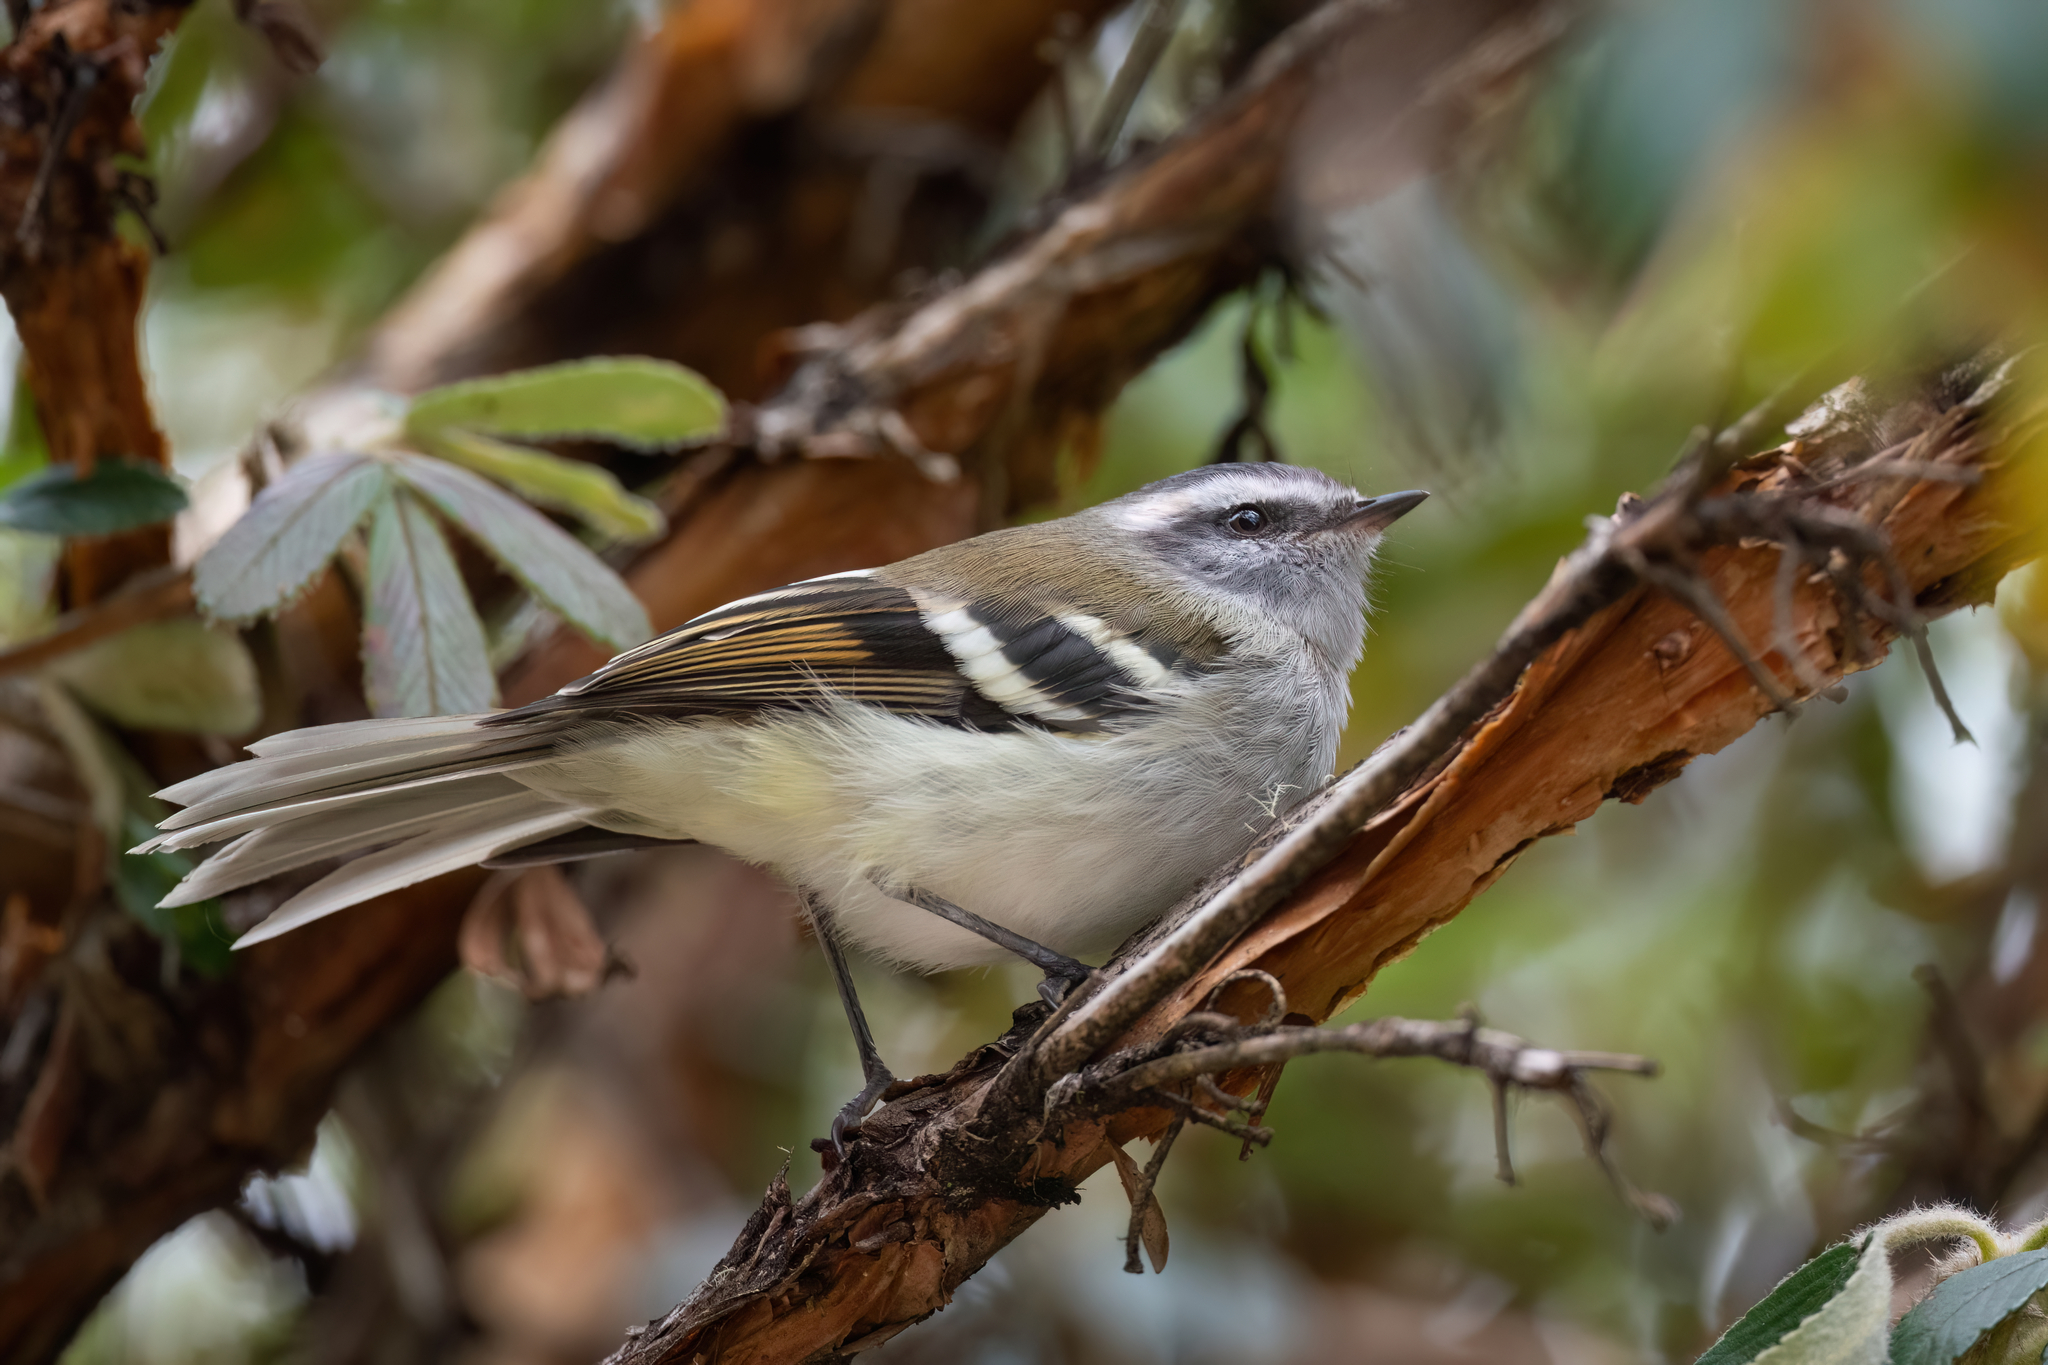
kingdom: Animalia
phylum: Chordata
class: Aves
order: Passeriformes
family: Tyrannidae
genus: Mecocerculus
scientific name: Mecocerculus stictopterus
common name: White-banded tyrannulet
